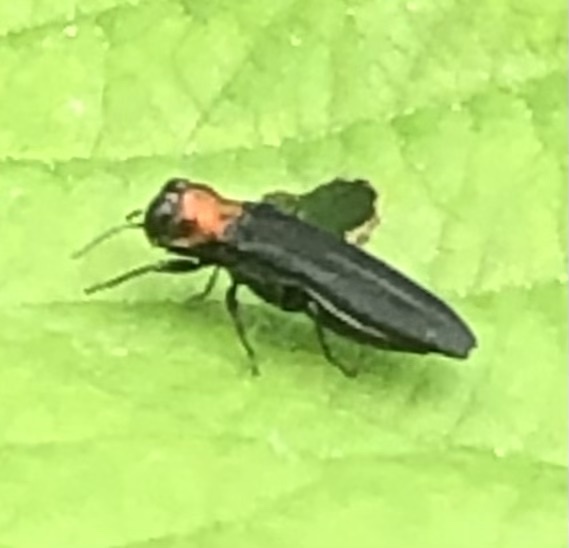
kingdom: Animalia
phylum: Arthropoda
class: Insecta
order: Coleoptera
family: Buprestidae
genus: Agrilus
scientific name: Agrilus ruficollis
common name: Red-necked cane borer beetle
